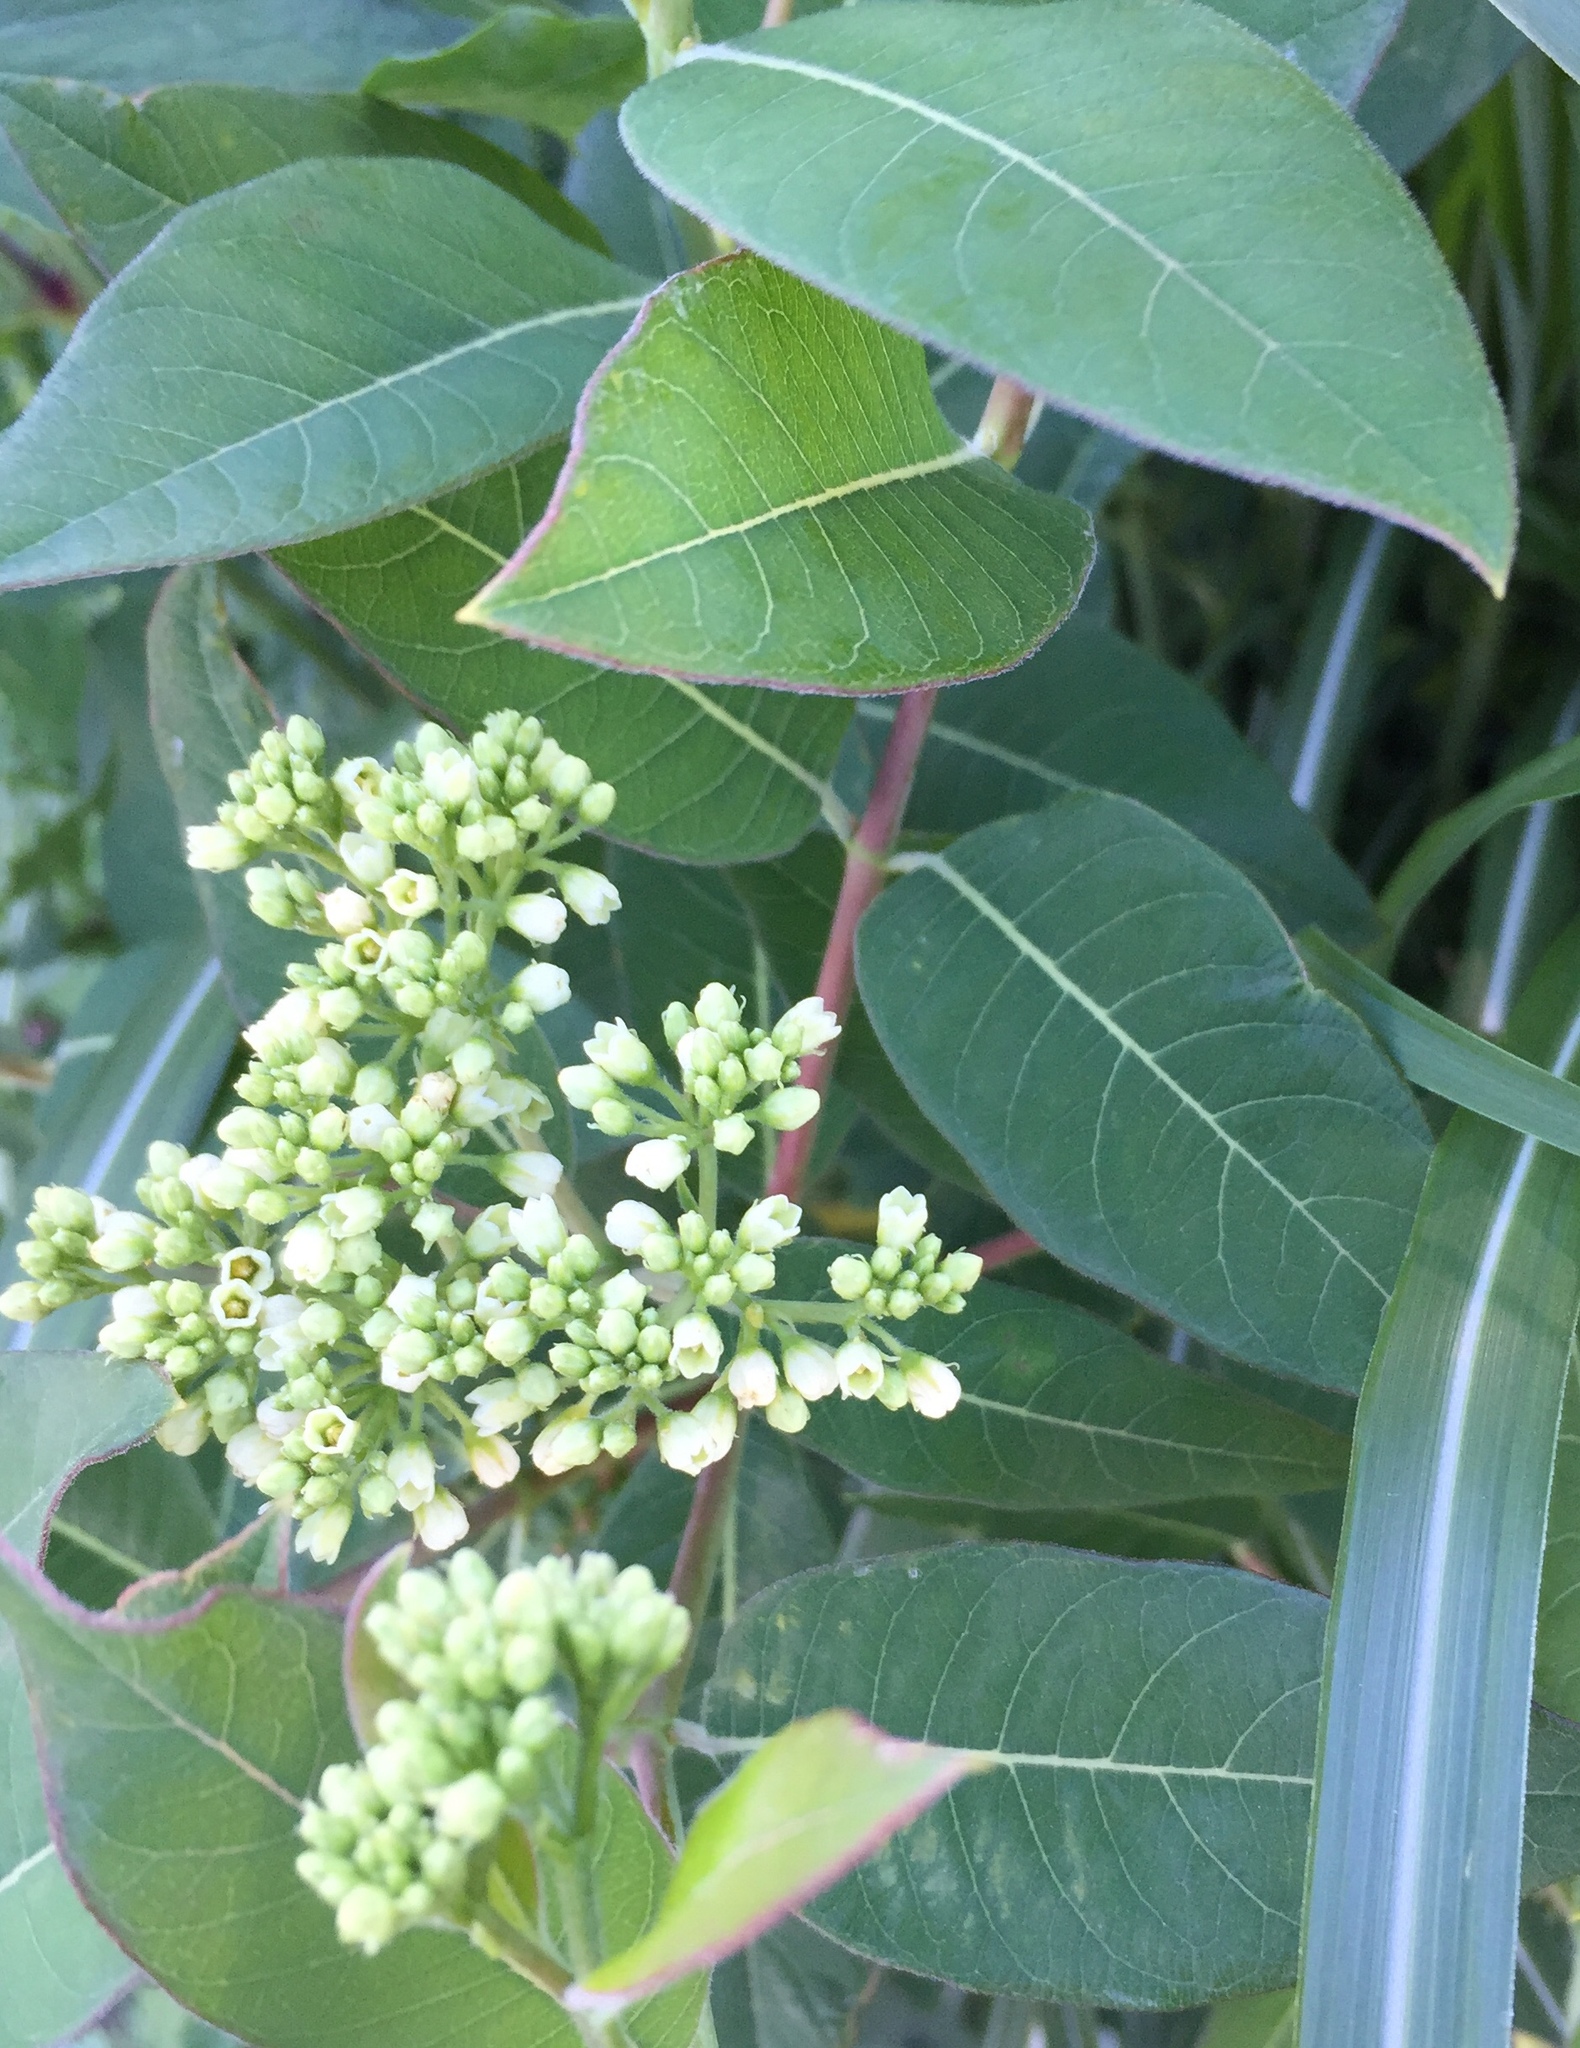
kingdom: Plantae
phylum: Tracheophyta
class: Magnoliopsida
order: Gentianales
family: Apocynaceae
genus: Apocynum
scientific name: Apocynum cannabinum
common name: Hemp dogbane
